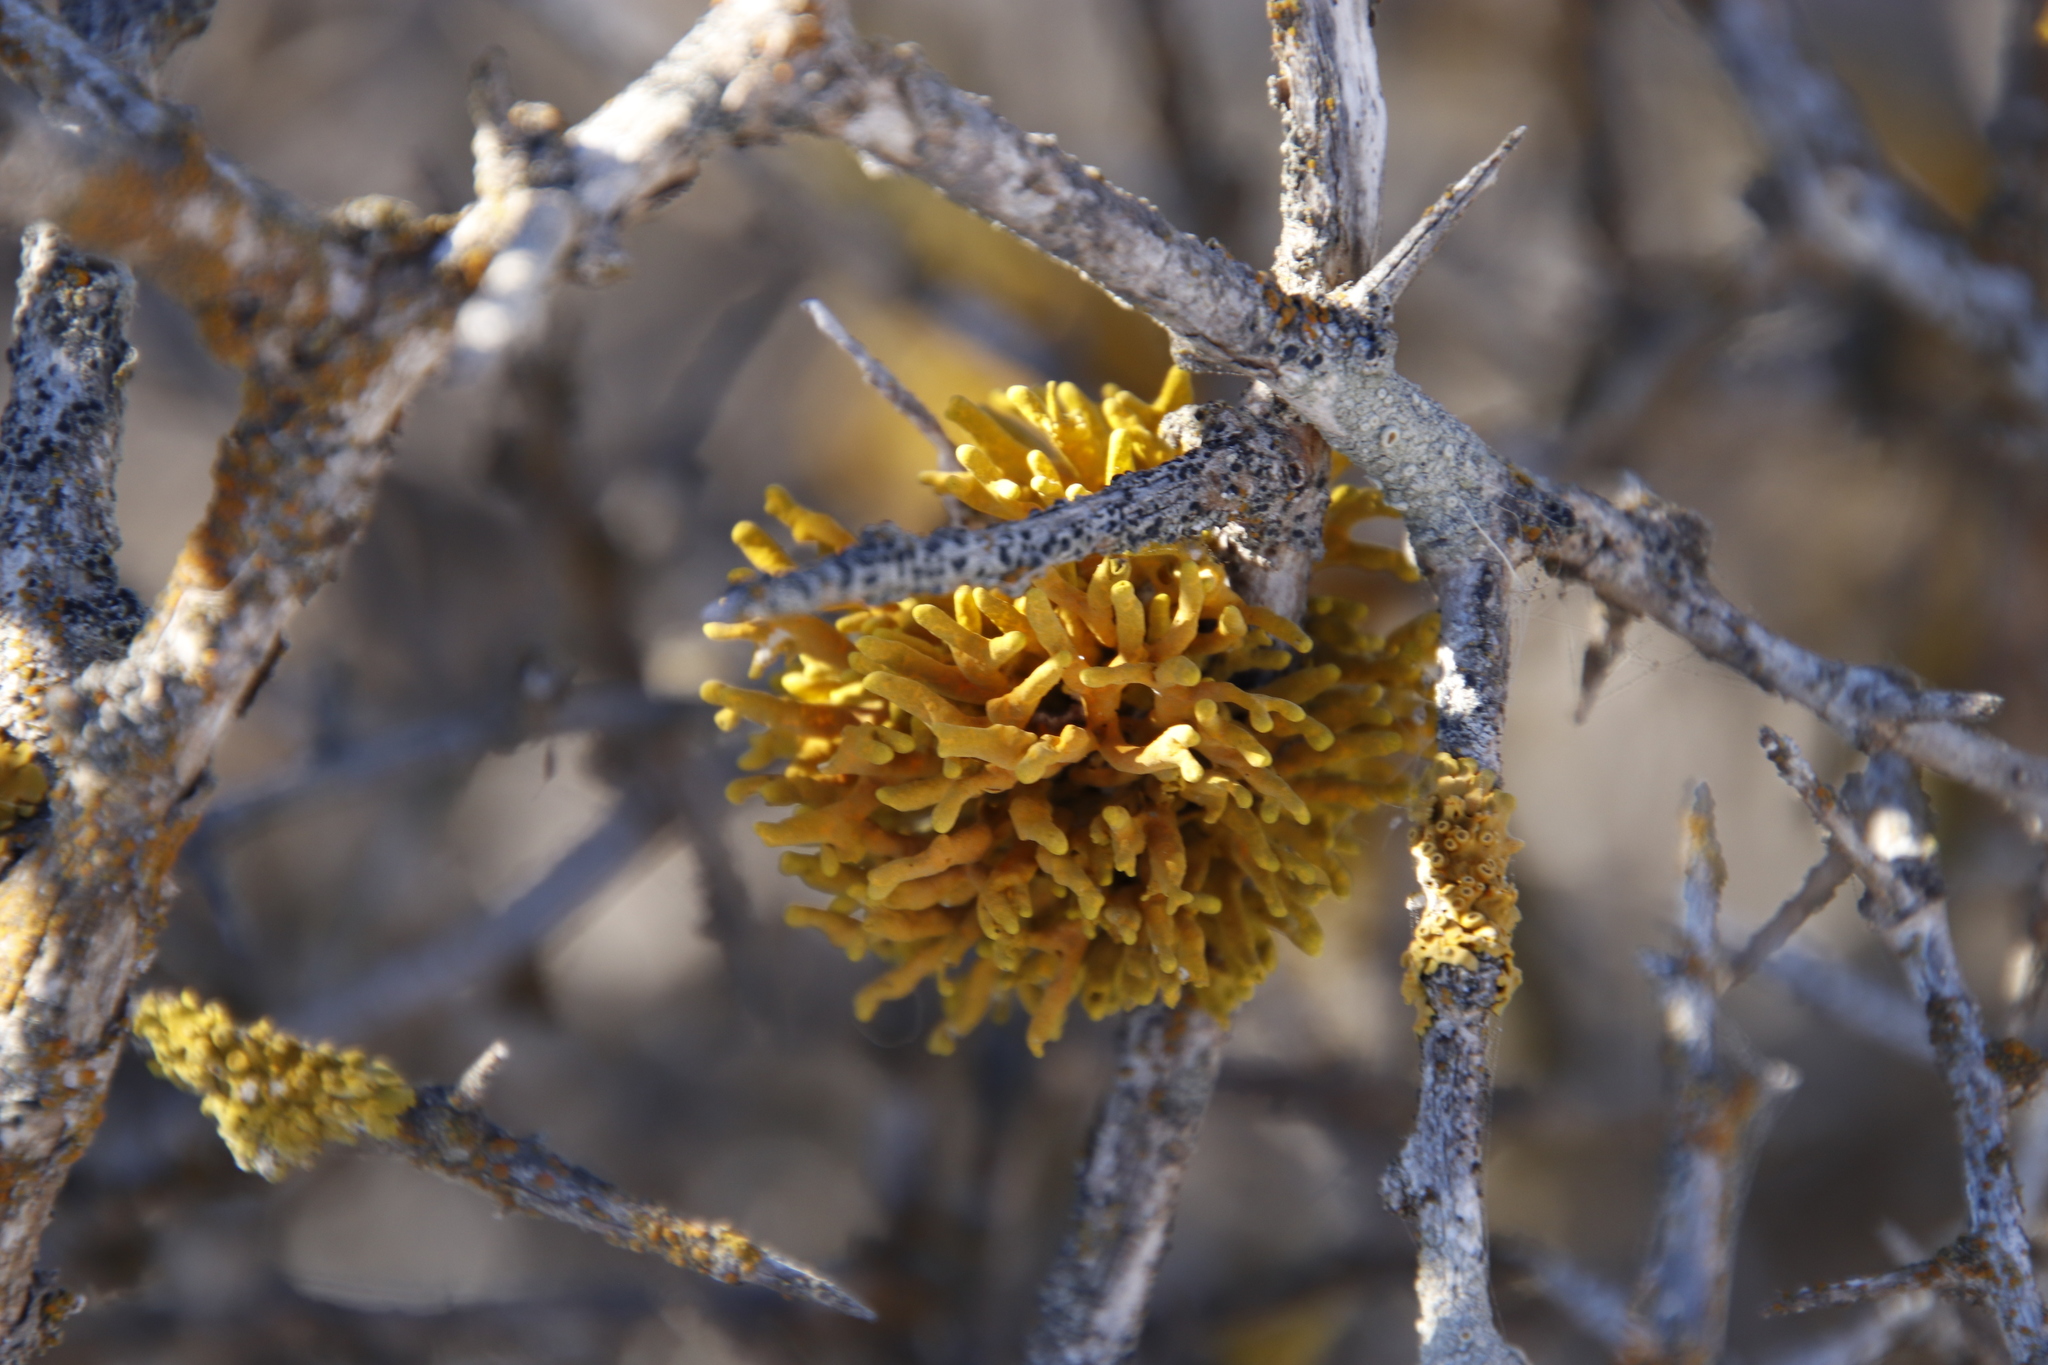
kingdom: Fungi
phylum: Ascomycota
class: Lecanoromycetes
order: Teloschistales
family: Teloschistaceae
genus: Dufourea
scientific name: Dufourea flammea
